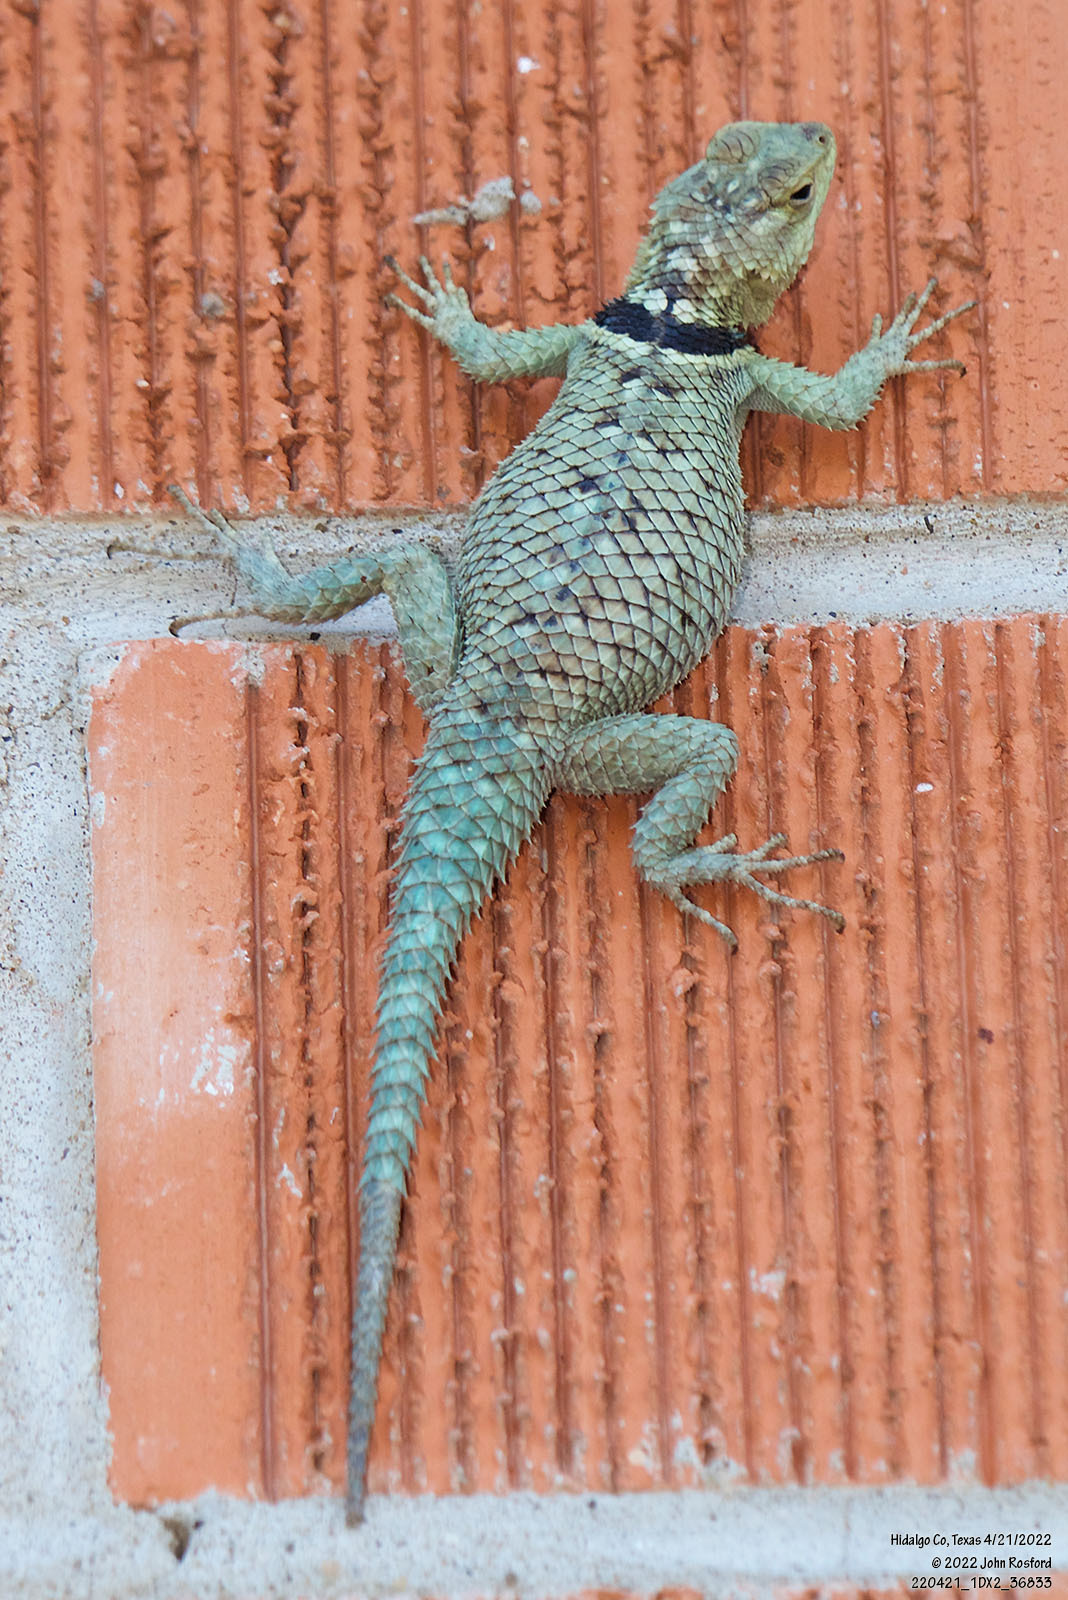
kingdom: Animalia
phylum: Chordata
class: Squamata
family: Phrynosomatidae
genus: Sceloporus
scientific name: Sceloporus cyanogenys
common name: Blue spiny lizard
